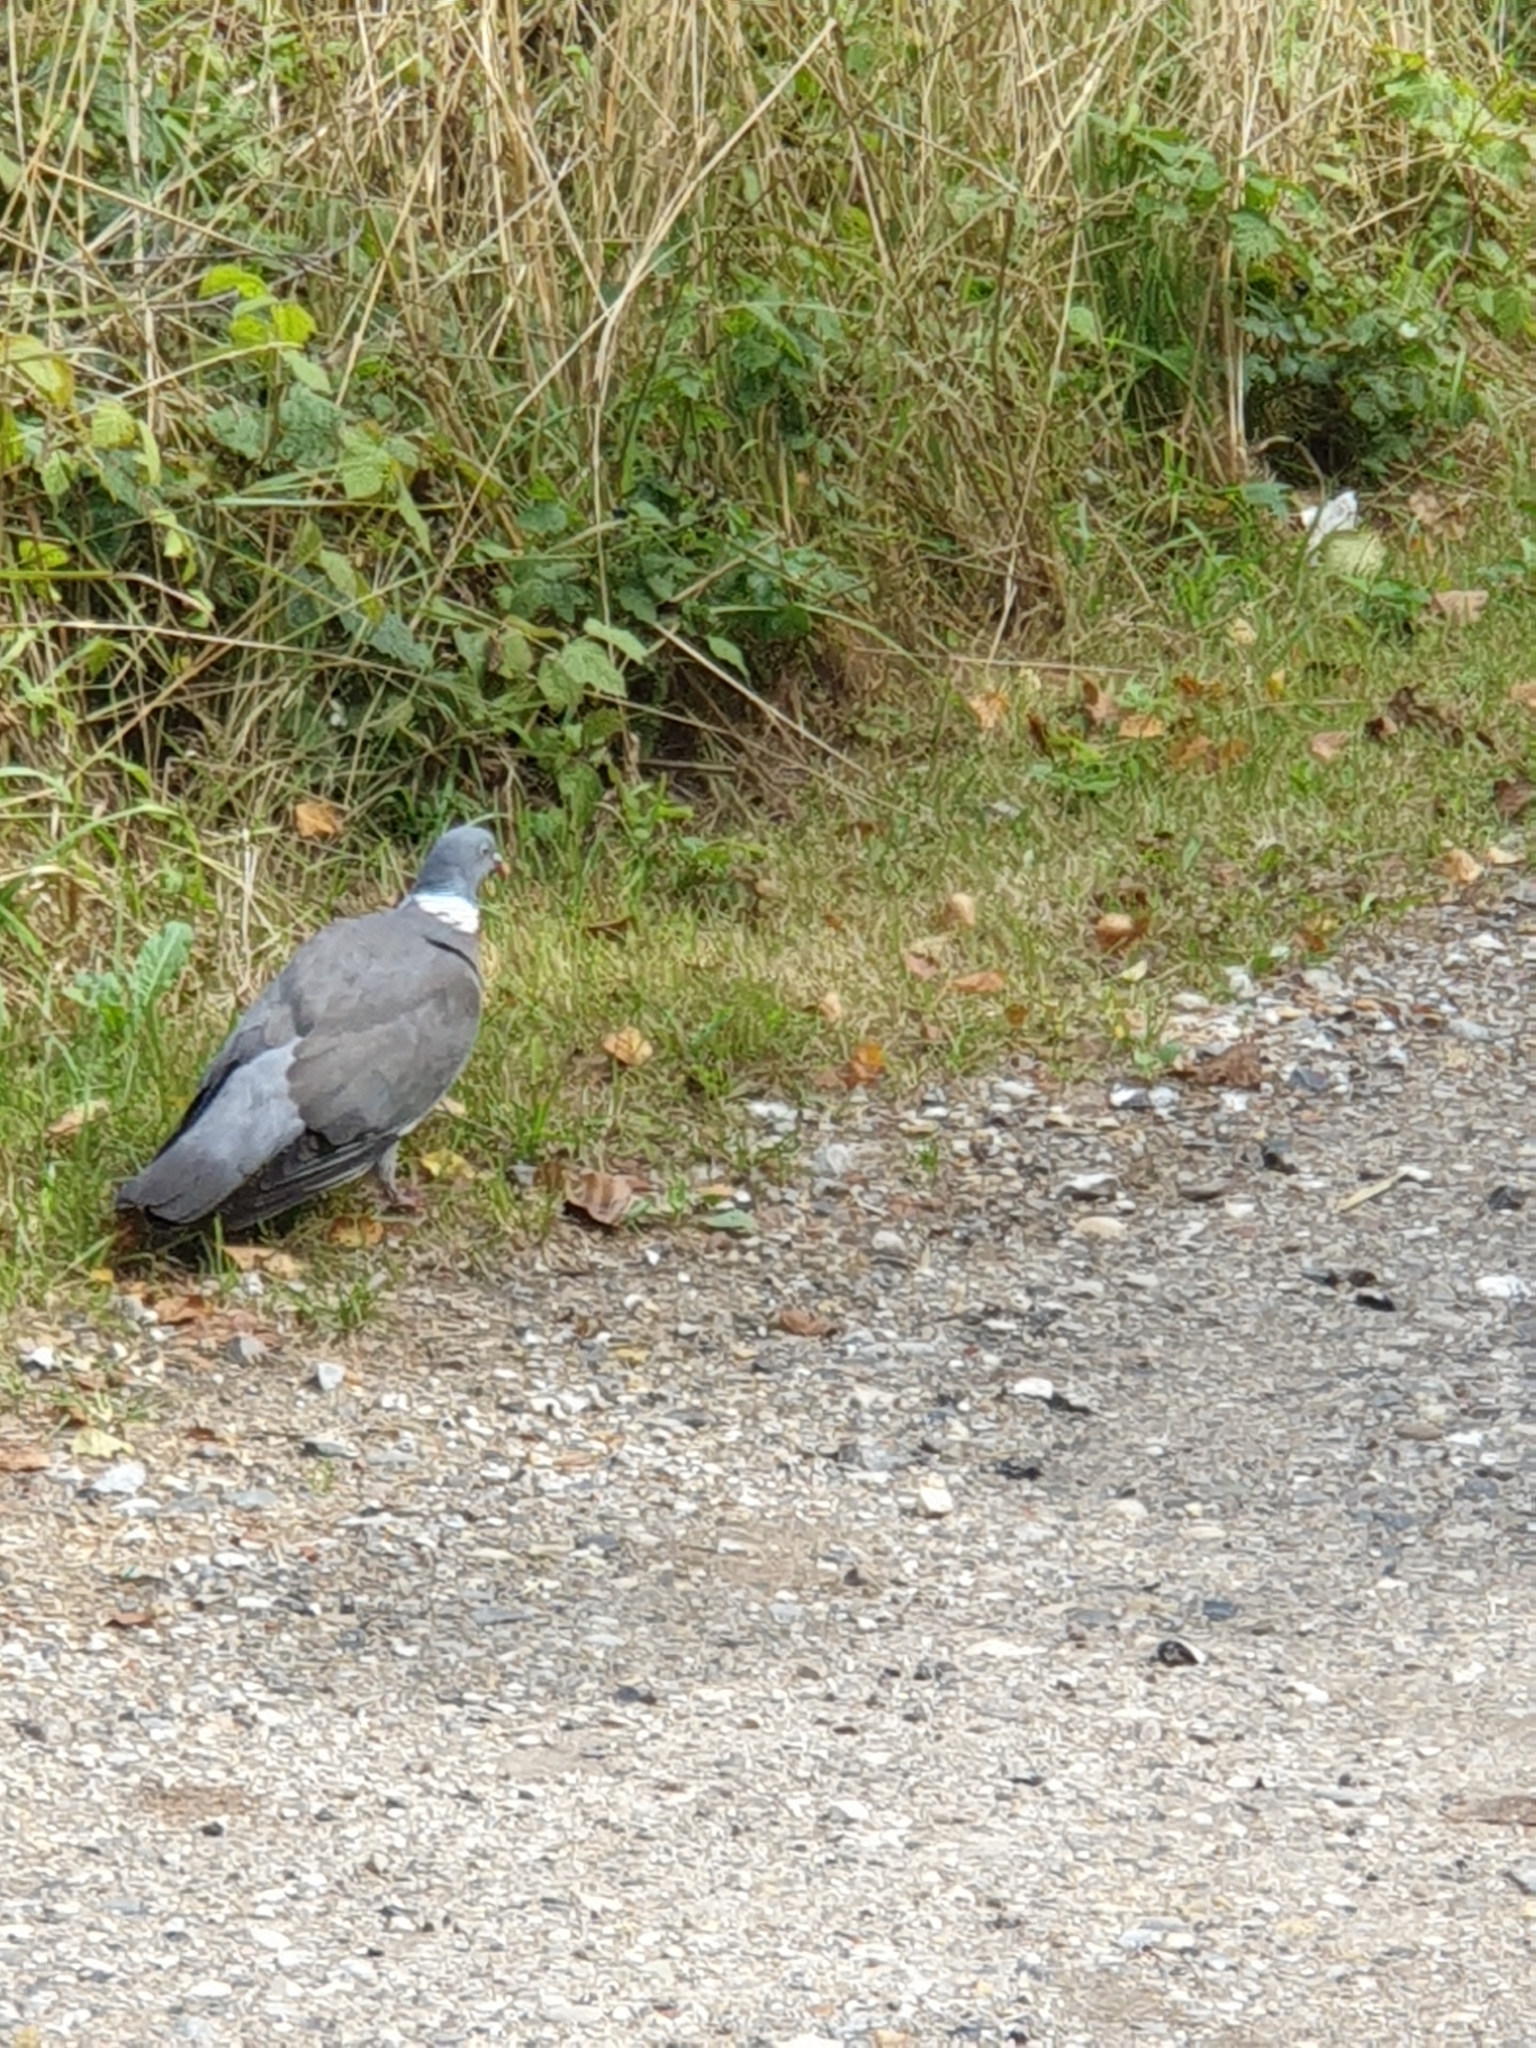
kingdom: Animalia
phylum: Chordata
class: Aves
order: Columbiformes
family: Columbidae
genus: Columba
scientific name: Columba palumbus
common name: Common wood pigeon
